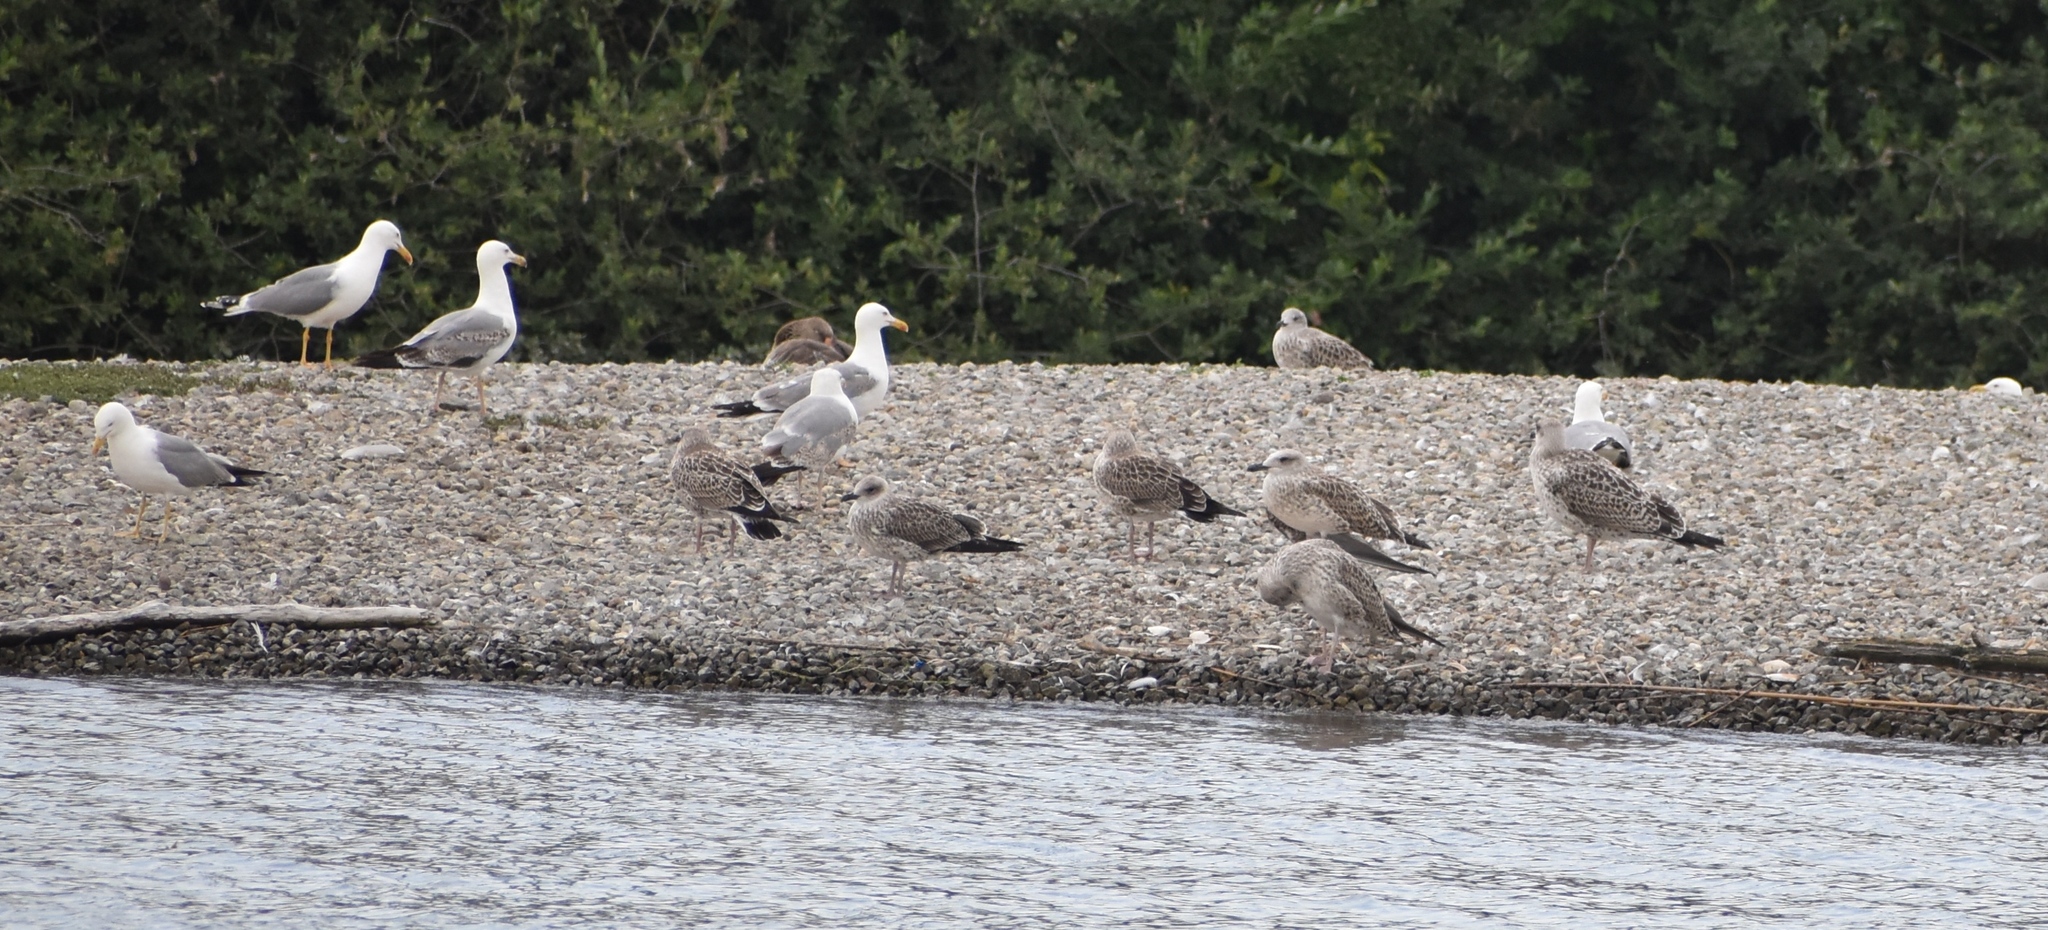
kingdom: Animalia
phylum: Chordata
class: Aves
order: Charadriiformes
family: Laridae
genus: Larus
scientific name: Larus michahellis
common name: Yellow-legged gull
